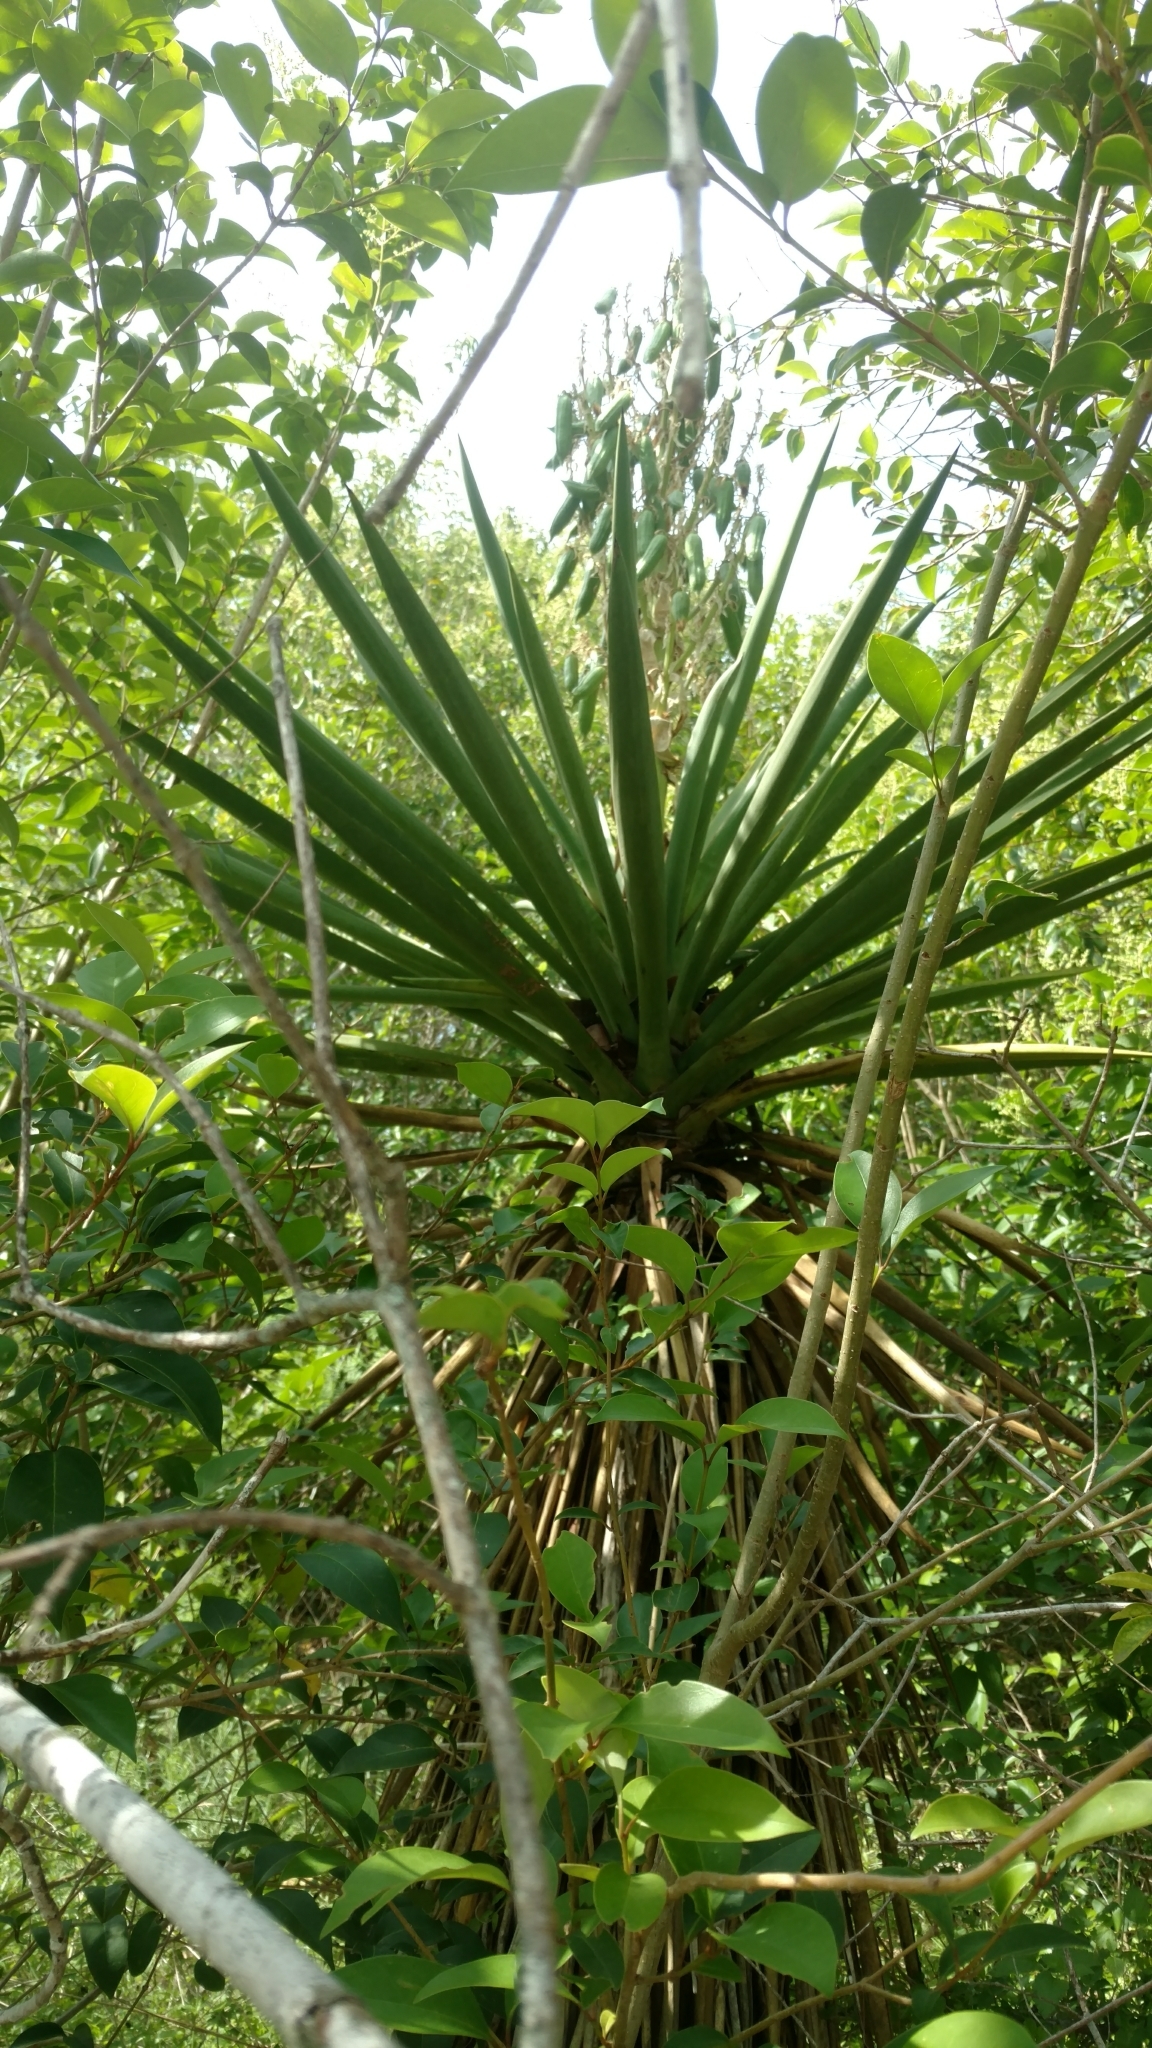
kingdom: Plantae
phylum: Tracheophyta
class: Liliopsida
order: Asparagales
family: Asparagaceae
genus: Yucca
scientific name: Yucca treculiana
